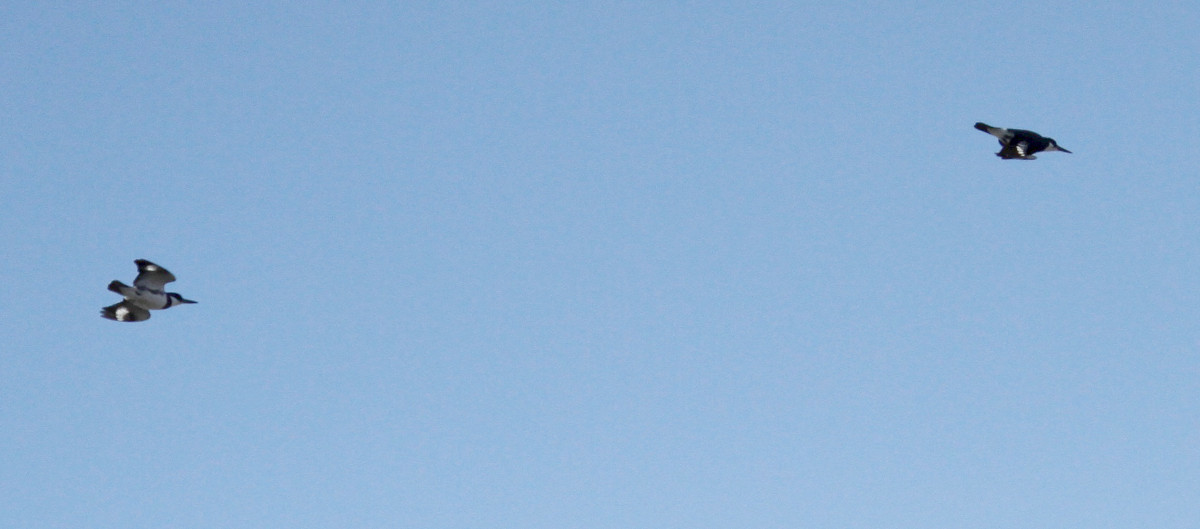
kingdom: Animalia
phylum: Chordata
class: Aves
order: Coraciiformes
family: Alcedinidae
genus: Megaceryle
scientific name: Megaceryle alcyon
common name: Belted kingfisher
